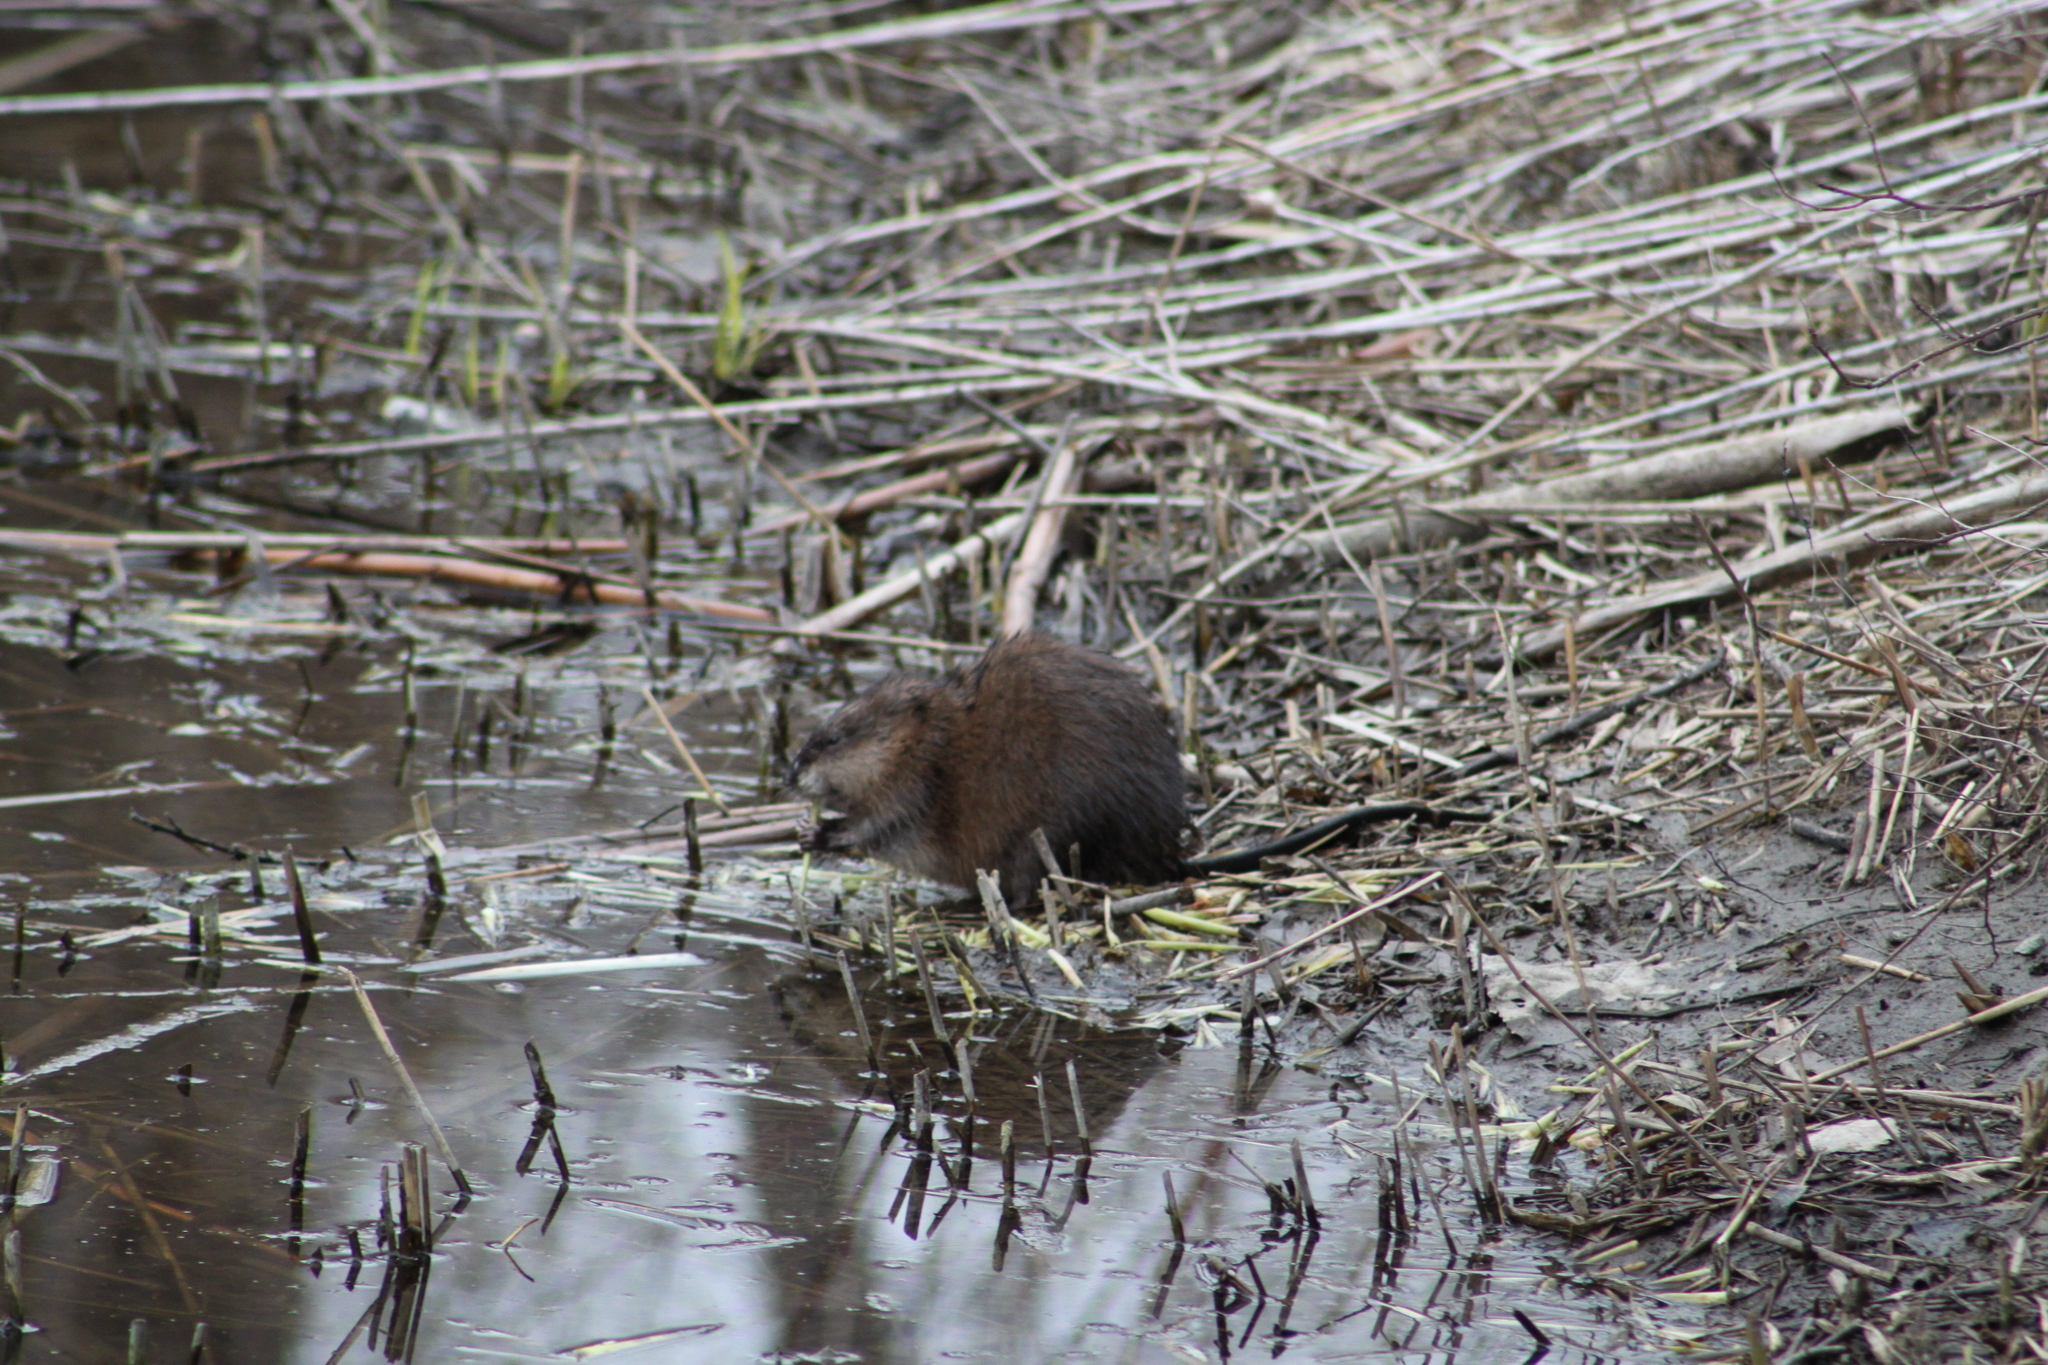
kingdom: Animalia
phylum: Chordata
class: Mammalia
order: Rodentia
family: Cricetidae
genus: Ondatra
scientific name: Ondatra zibethicus
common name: Muskrat
